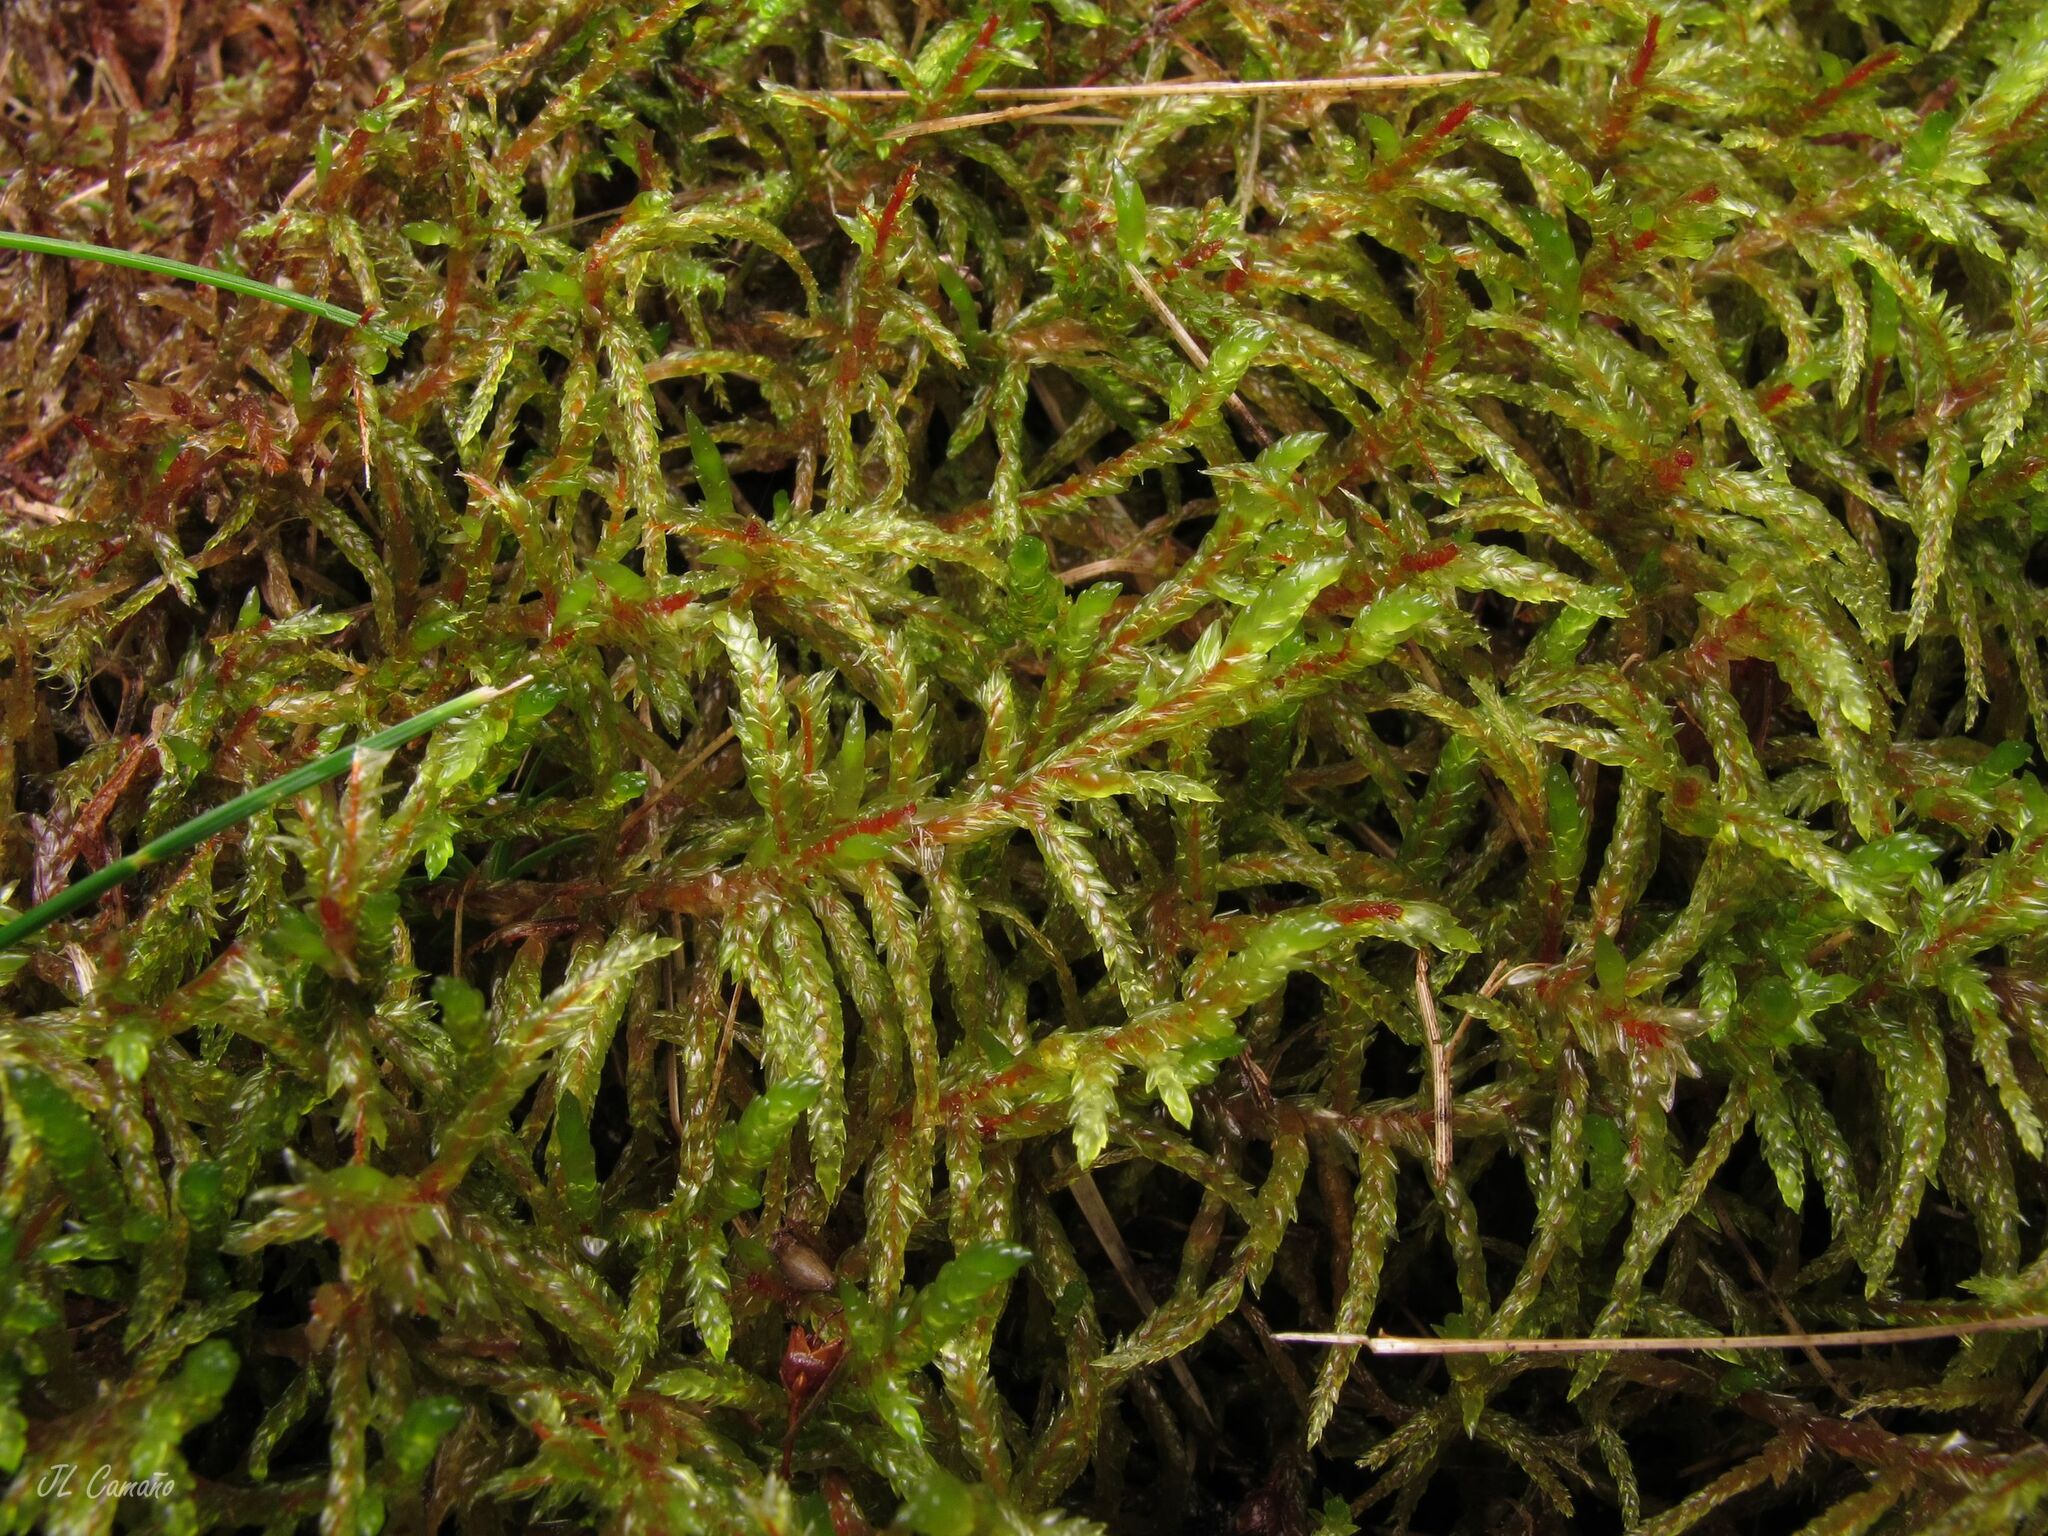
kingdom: Plantae
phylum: Bryophyta
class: Bryopsida
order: Hypnales
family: Hylocomiaceae
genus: Pleurozium
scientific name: Pleurozium schreberi
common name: Red-stemmed feather moss
